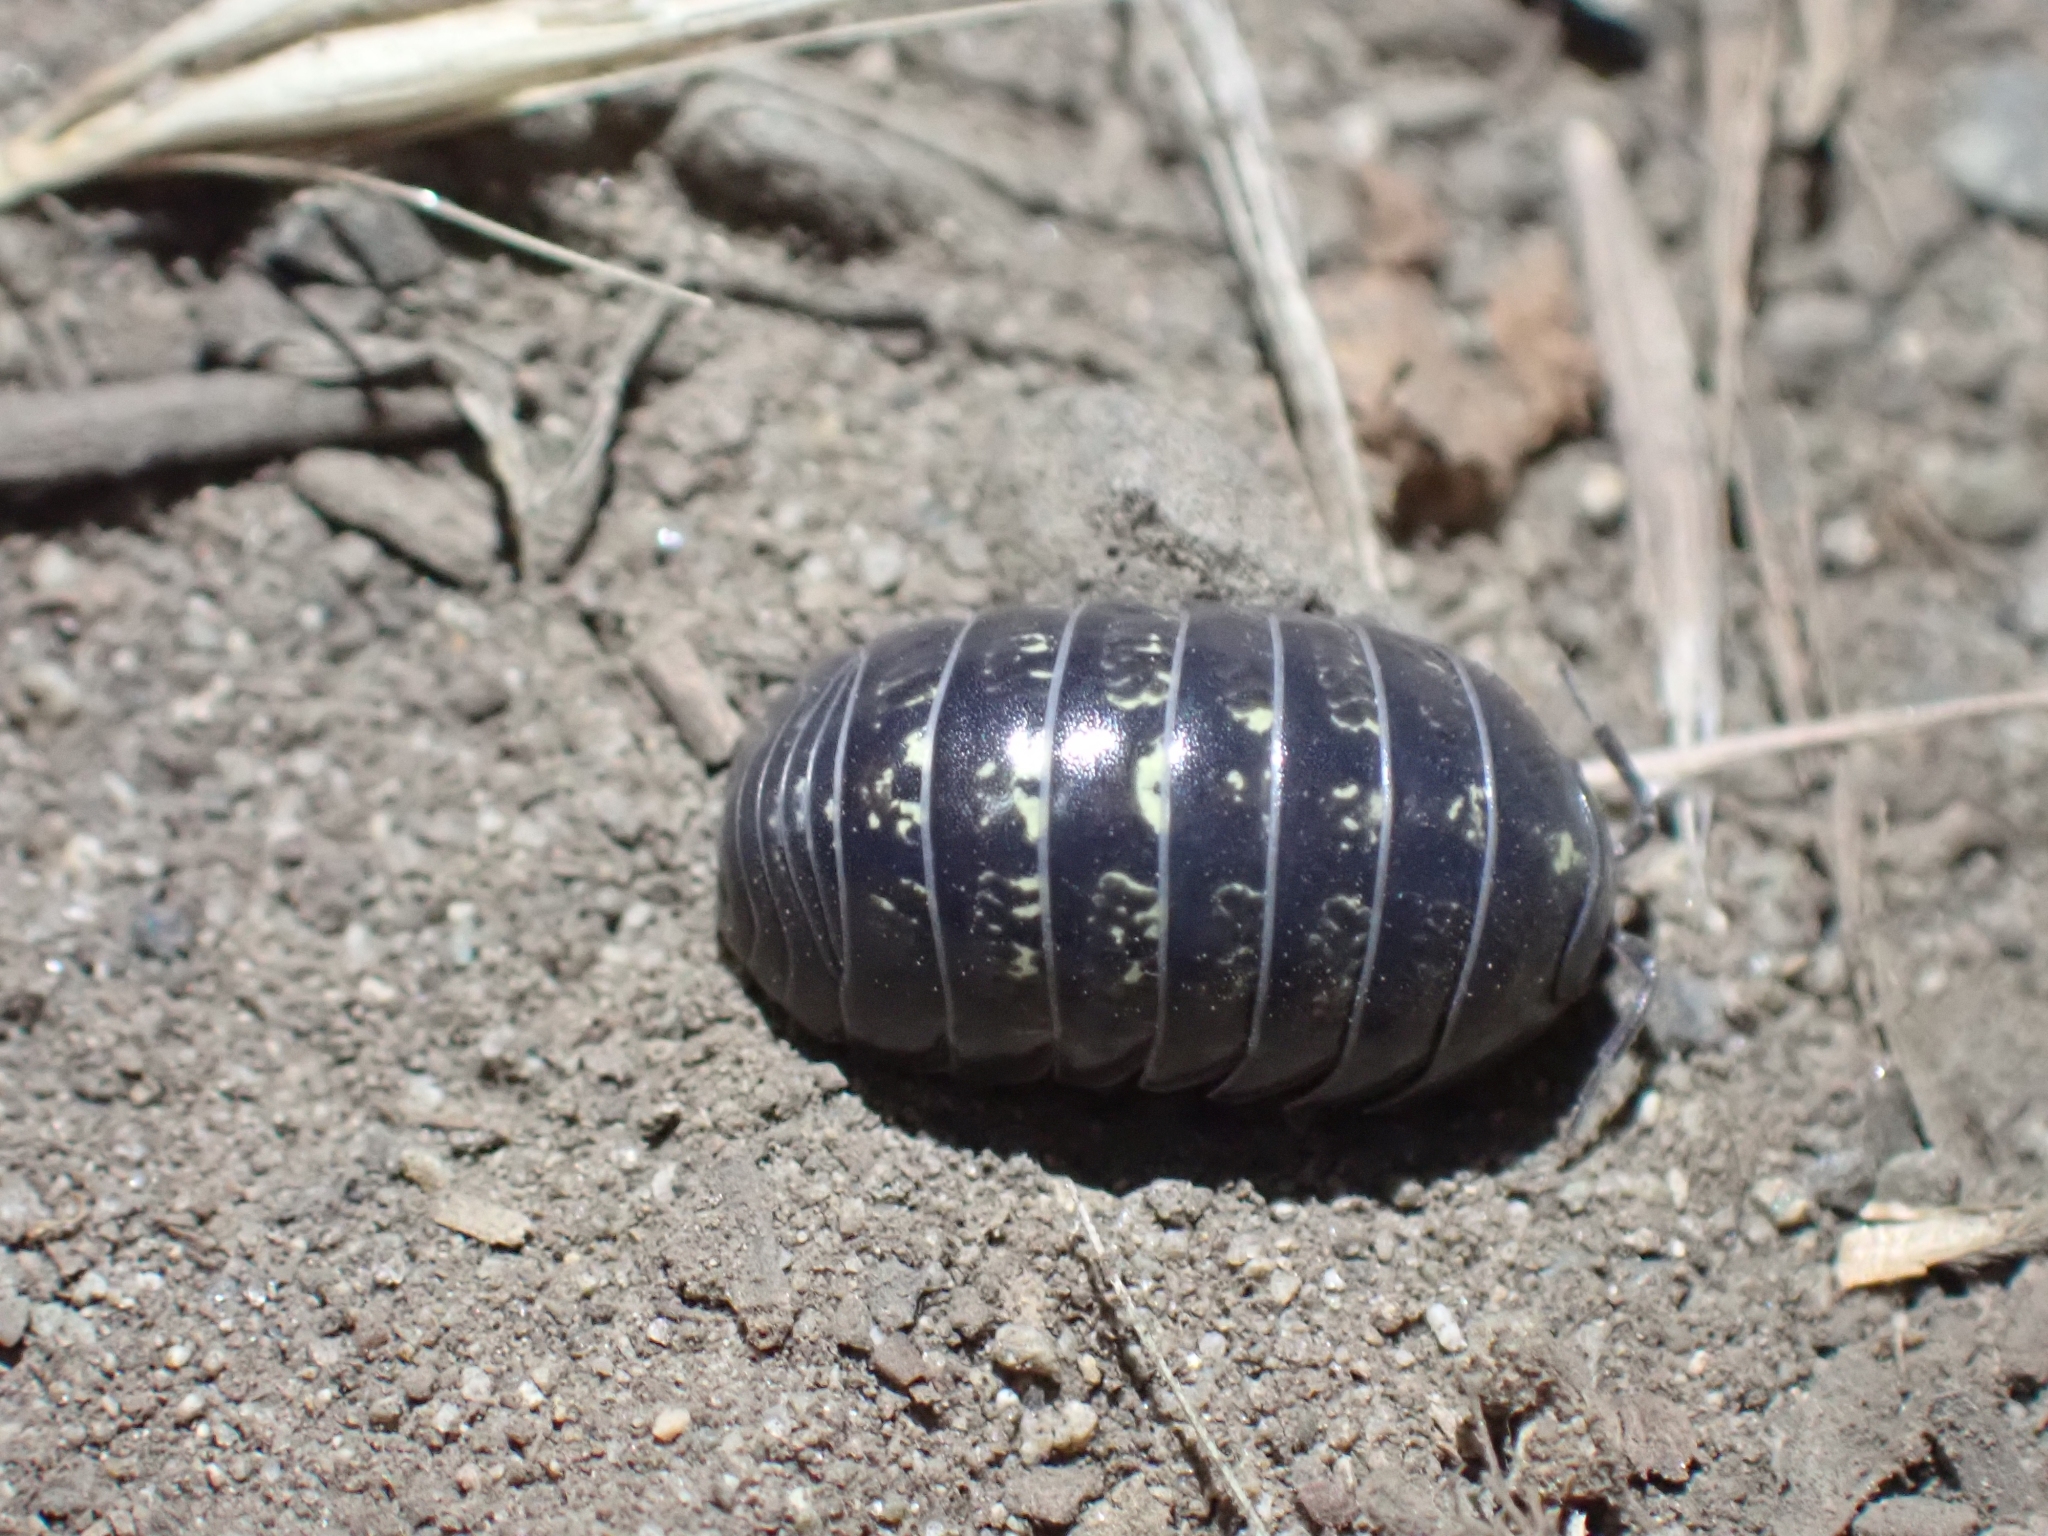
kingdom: Animalia
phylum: Arthropoda
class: Malacostraca
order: Isopoda
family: Armadillidiidae
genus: Armadillidium
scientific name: Armadillidium vulgare
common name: Common pill woodlouse
